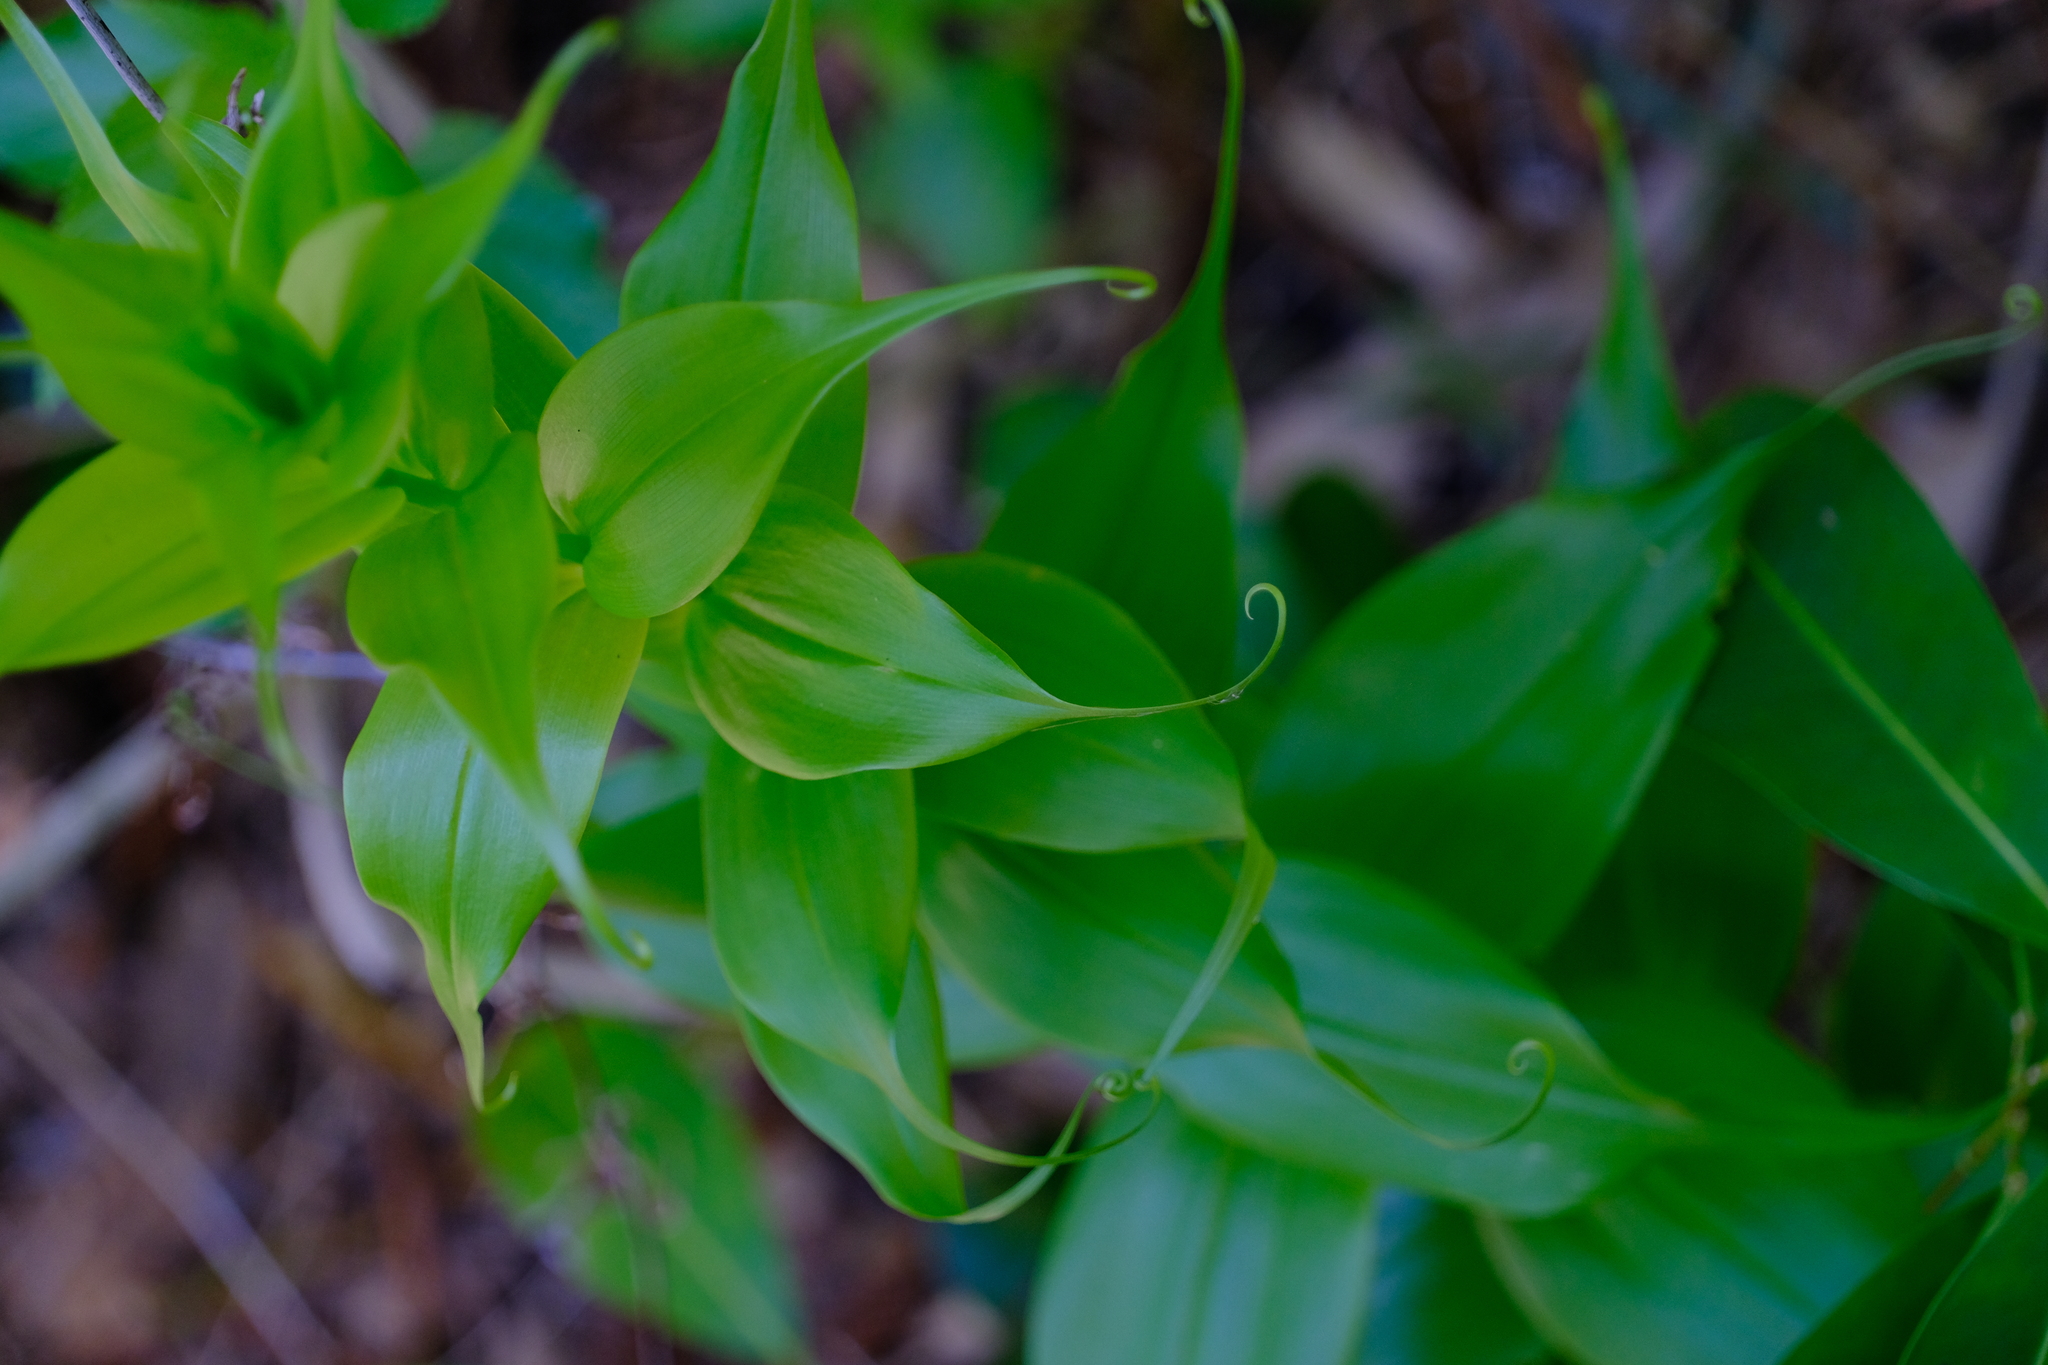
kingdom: Plantae
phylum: Tracheophyta
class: Liliopsida
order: Liliales
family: Colchicaceae
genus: Gloriosa
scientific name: Gloriosa superba
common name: Flame lily
